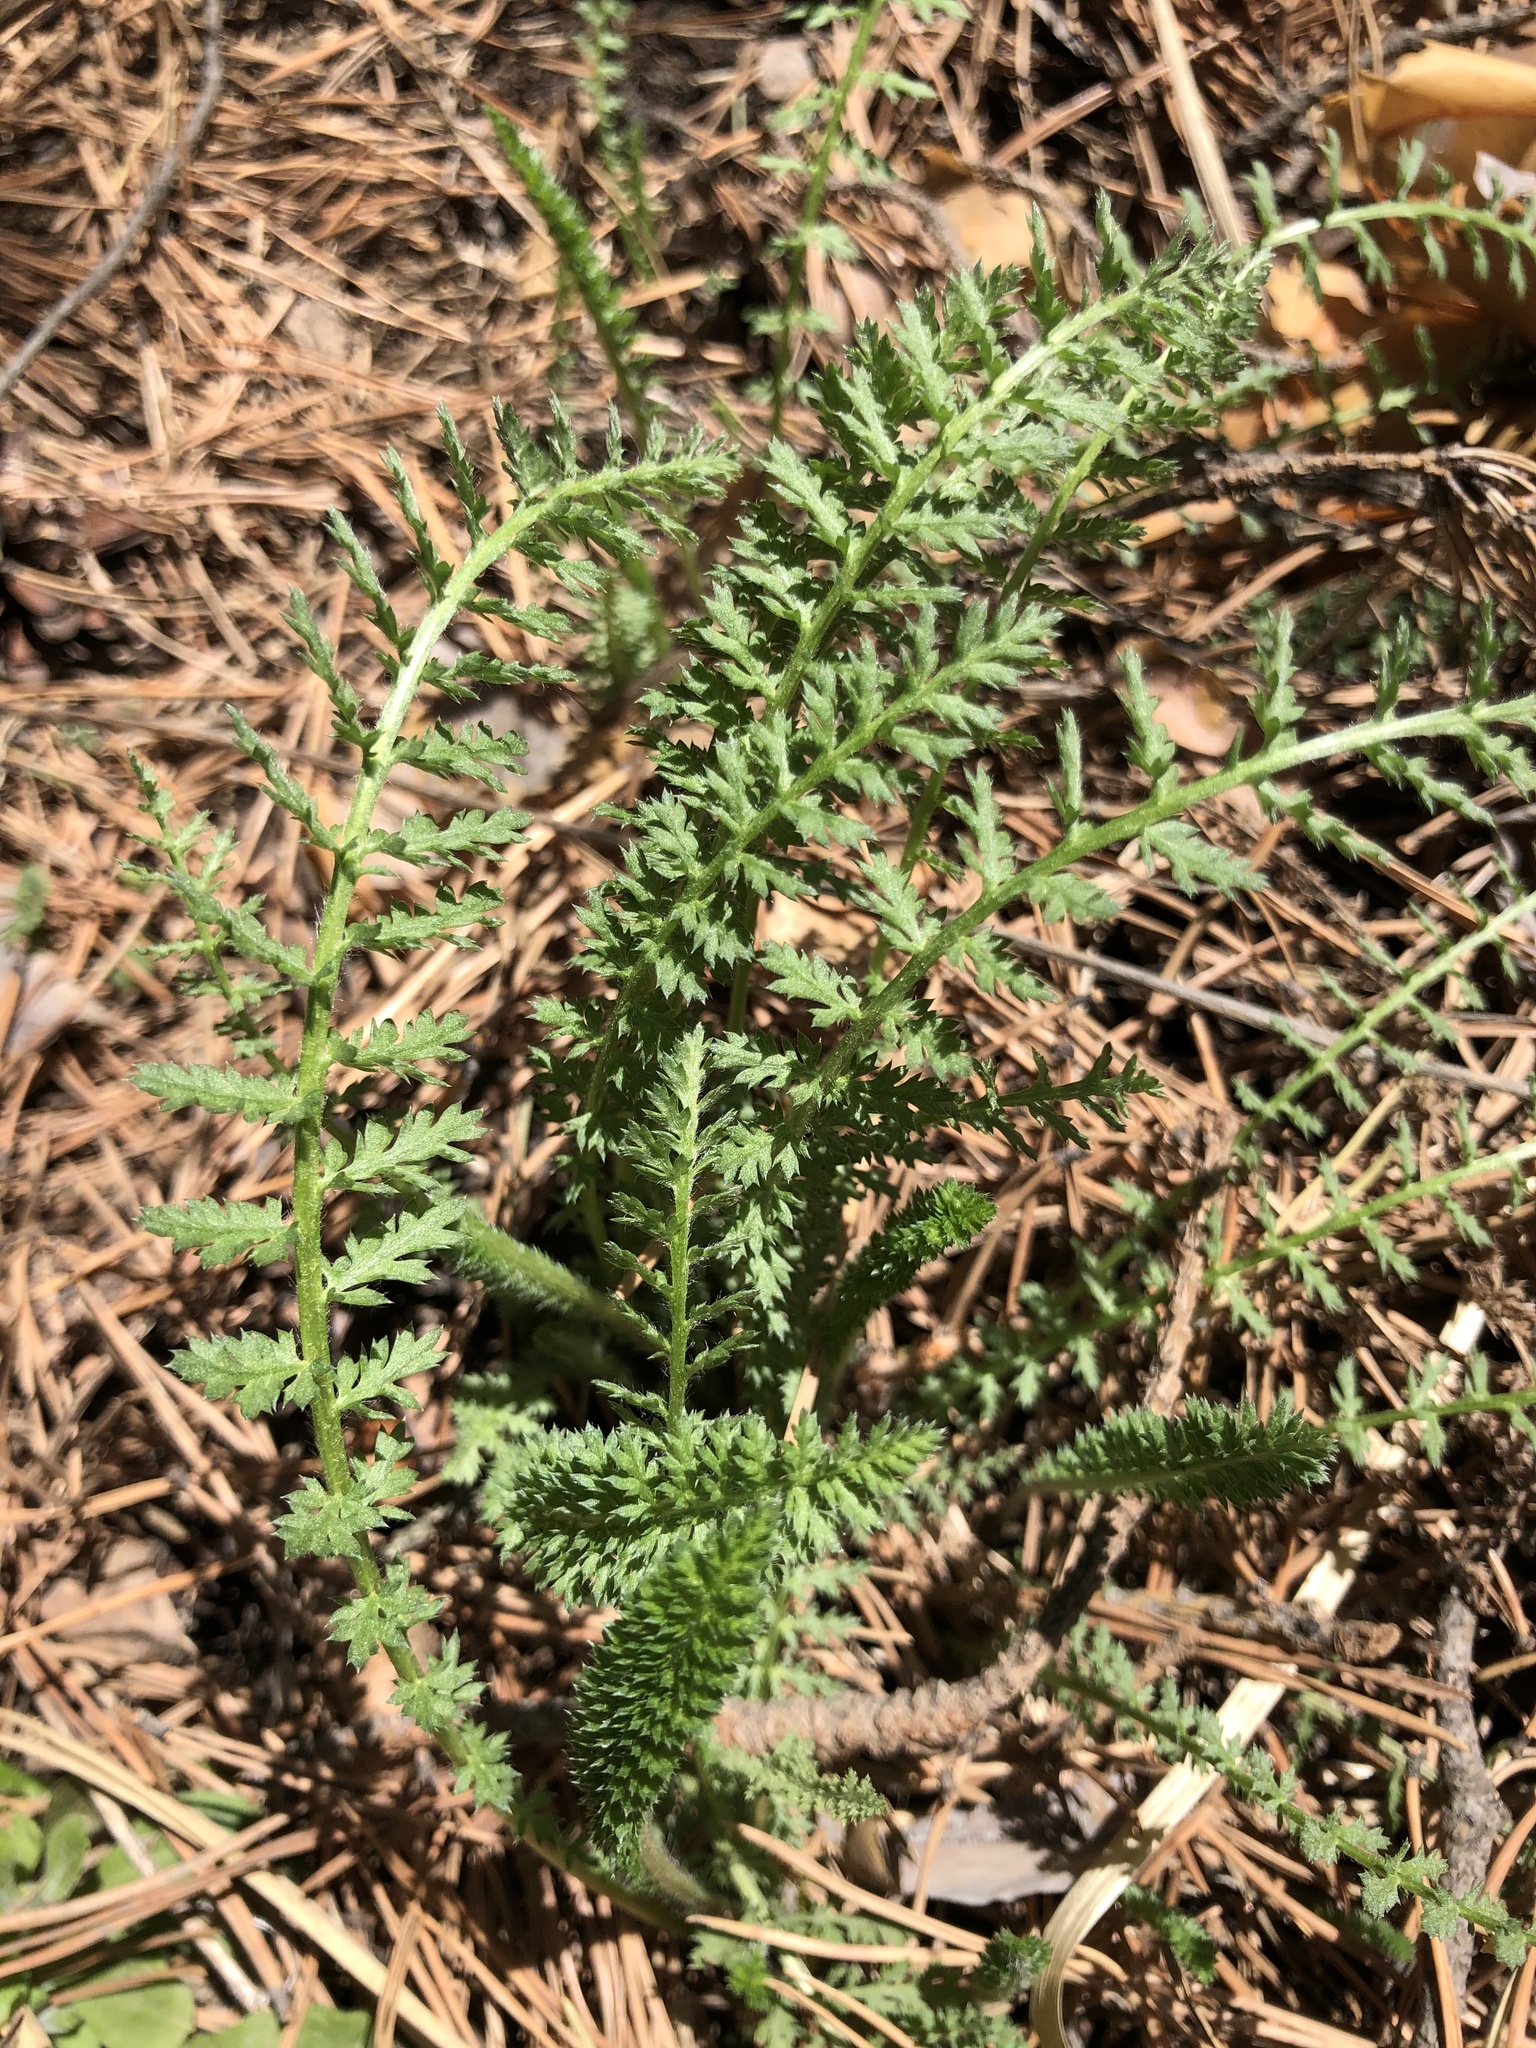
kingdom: Plantae
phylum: Tracheophyta
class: Magnoliopsida
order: Asterales
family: Asteraceae
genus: Achillea
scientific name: Achillea millefolium
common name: Yarrow
